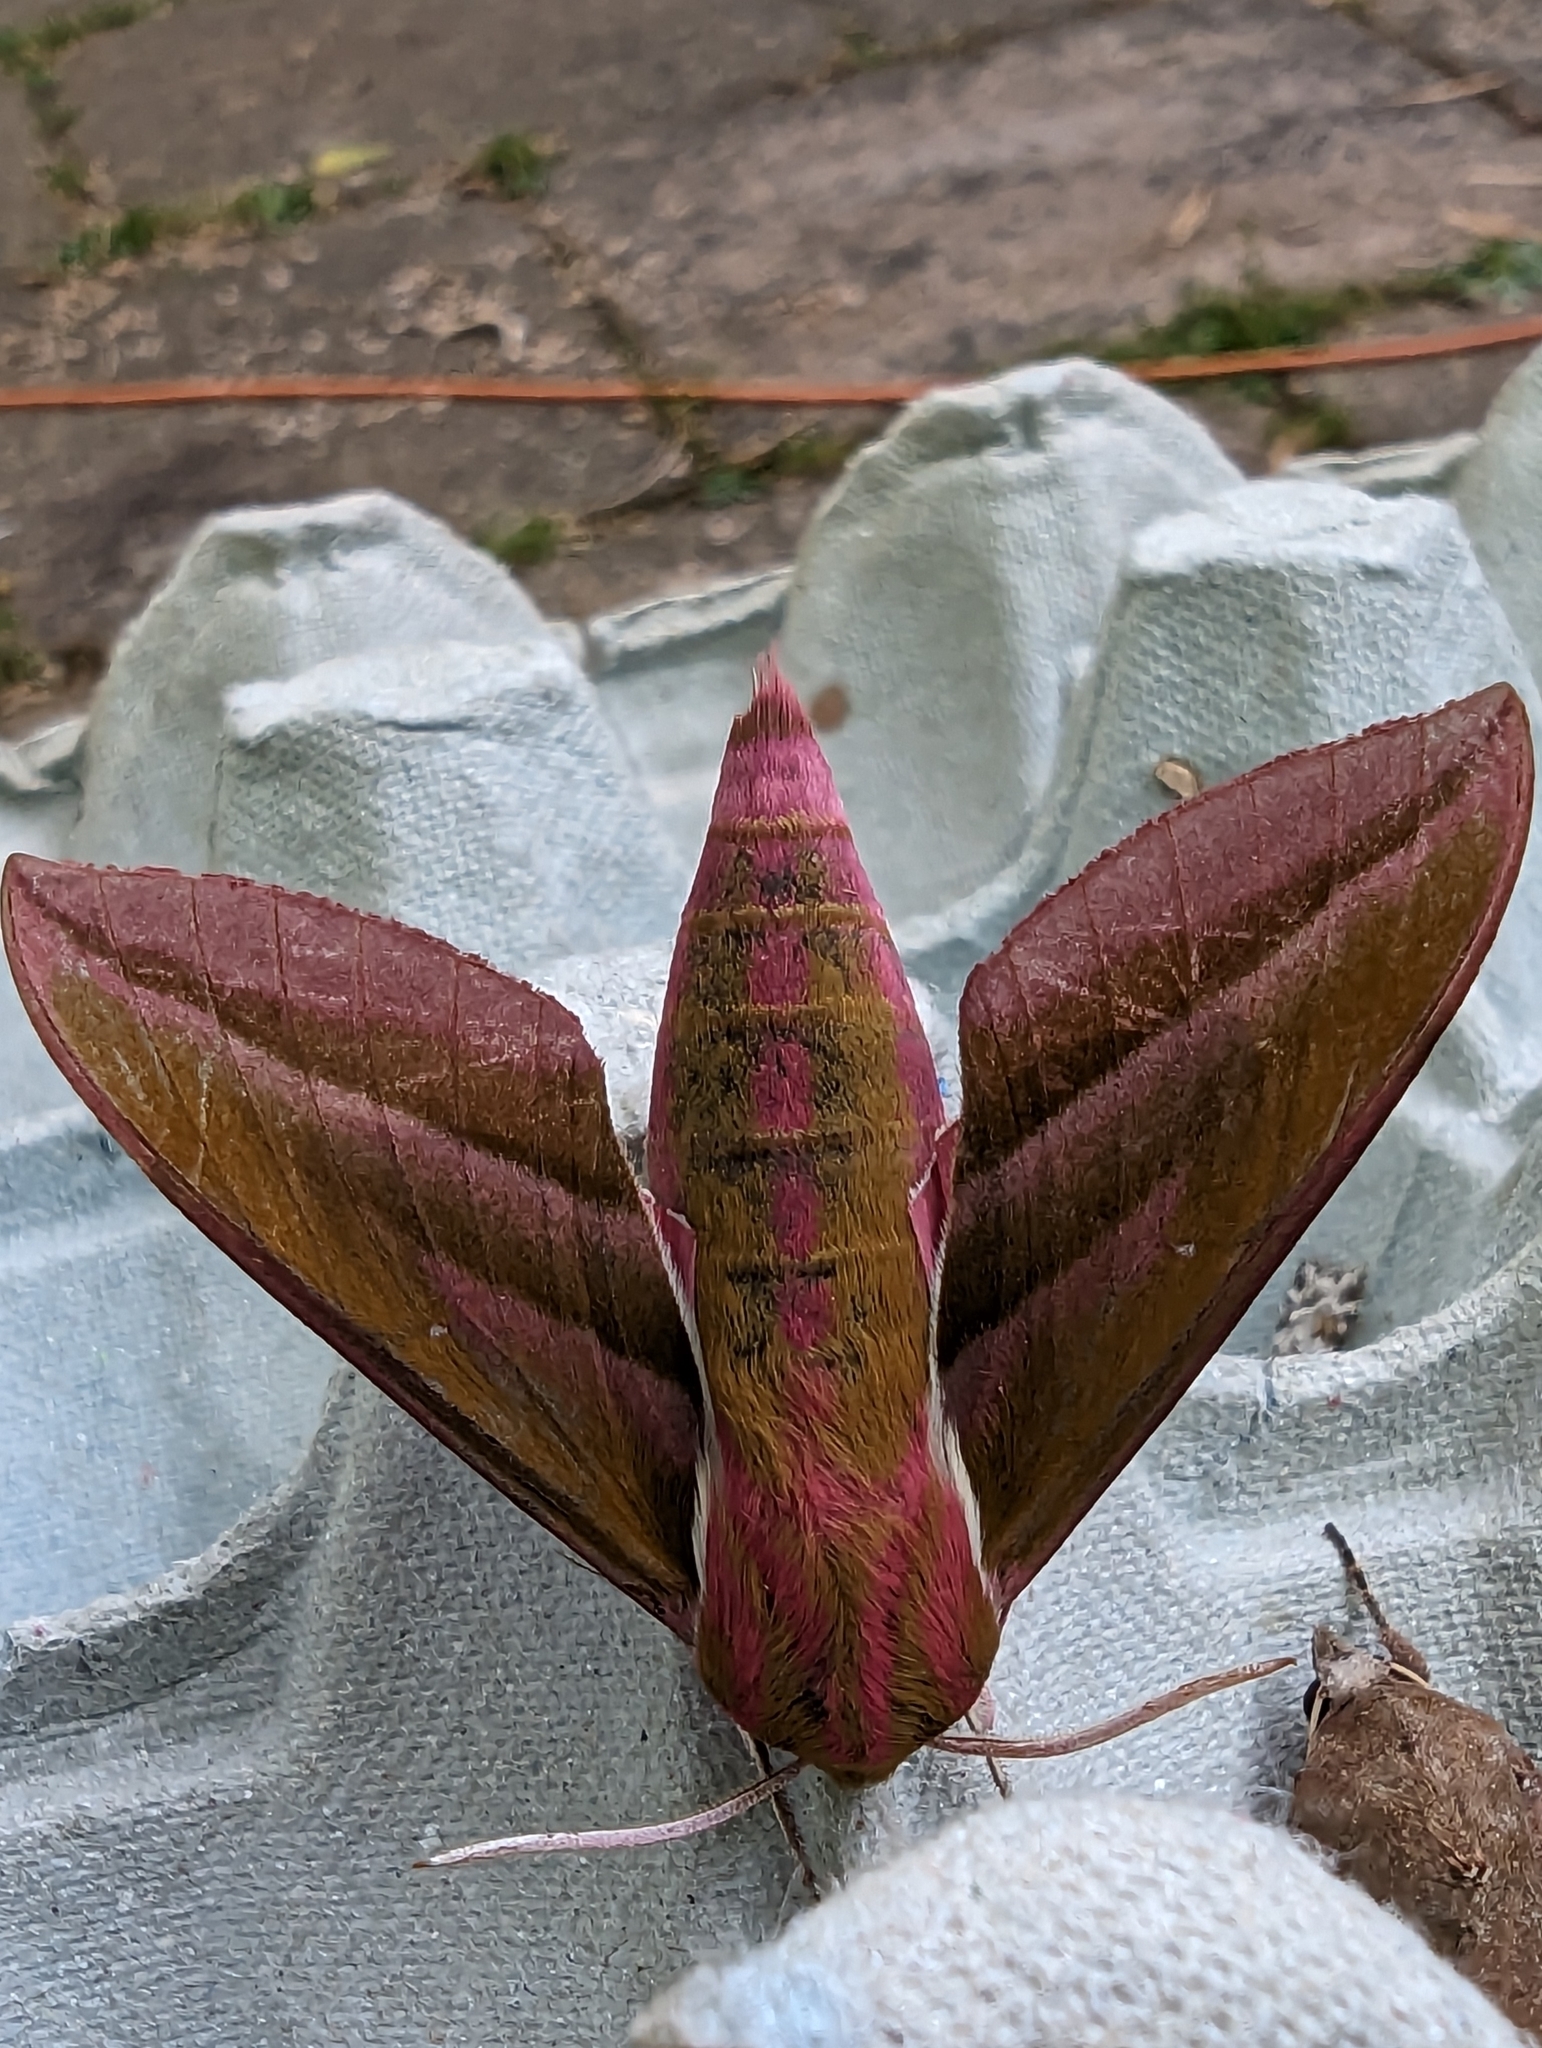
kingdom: Animalia
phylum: Arthropoda
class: Insecta
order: Lepidoptera
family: Sphingidae
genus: Deilephila
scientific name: Deilephila elpenor
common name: Elephant hawk-moth
